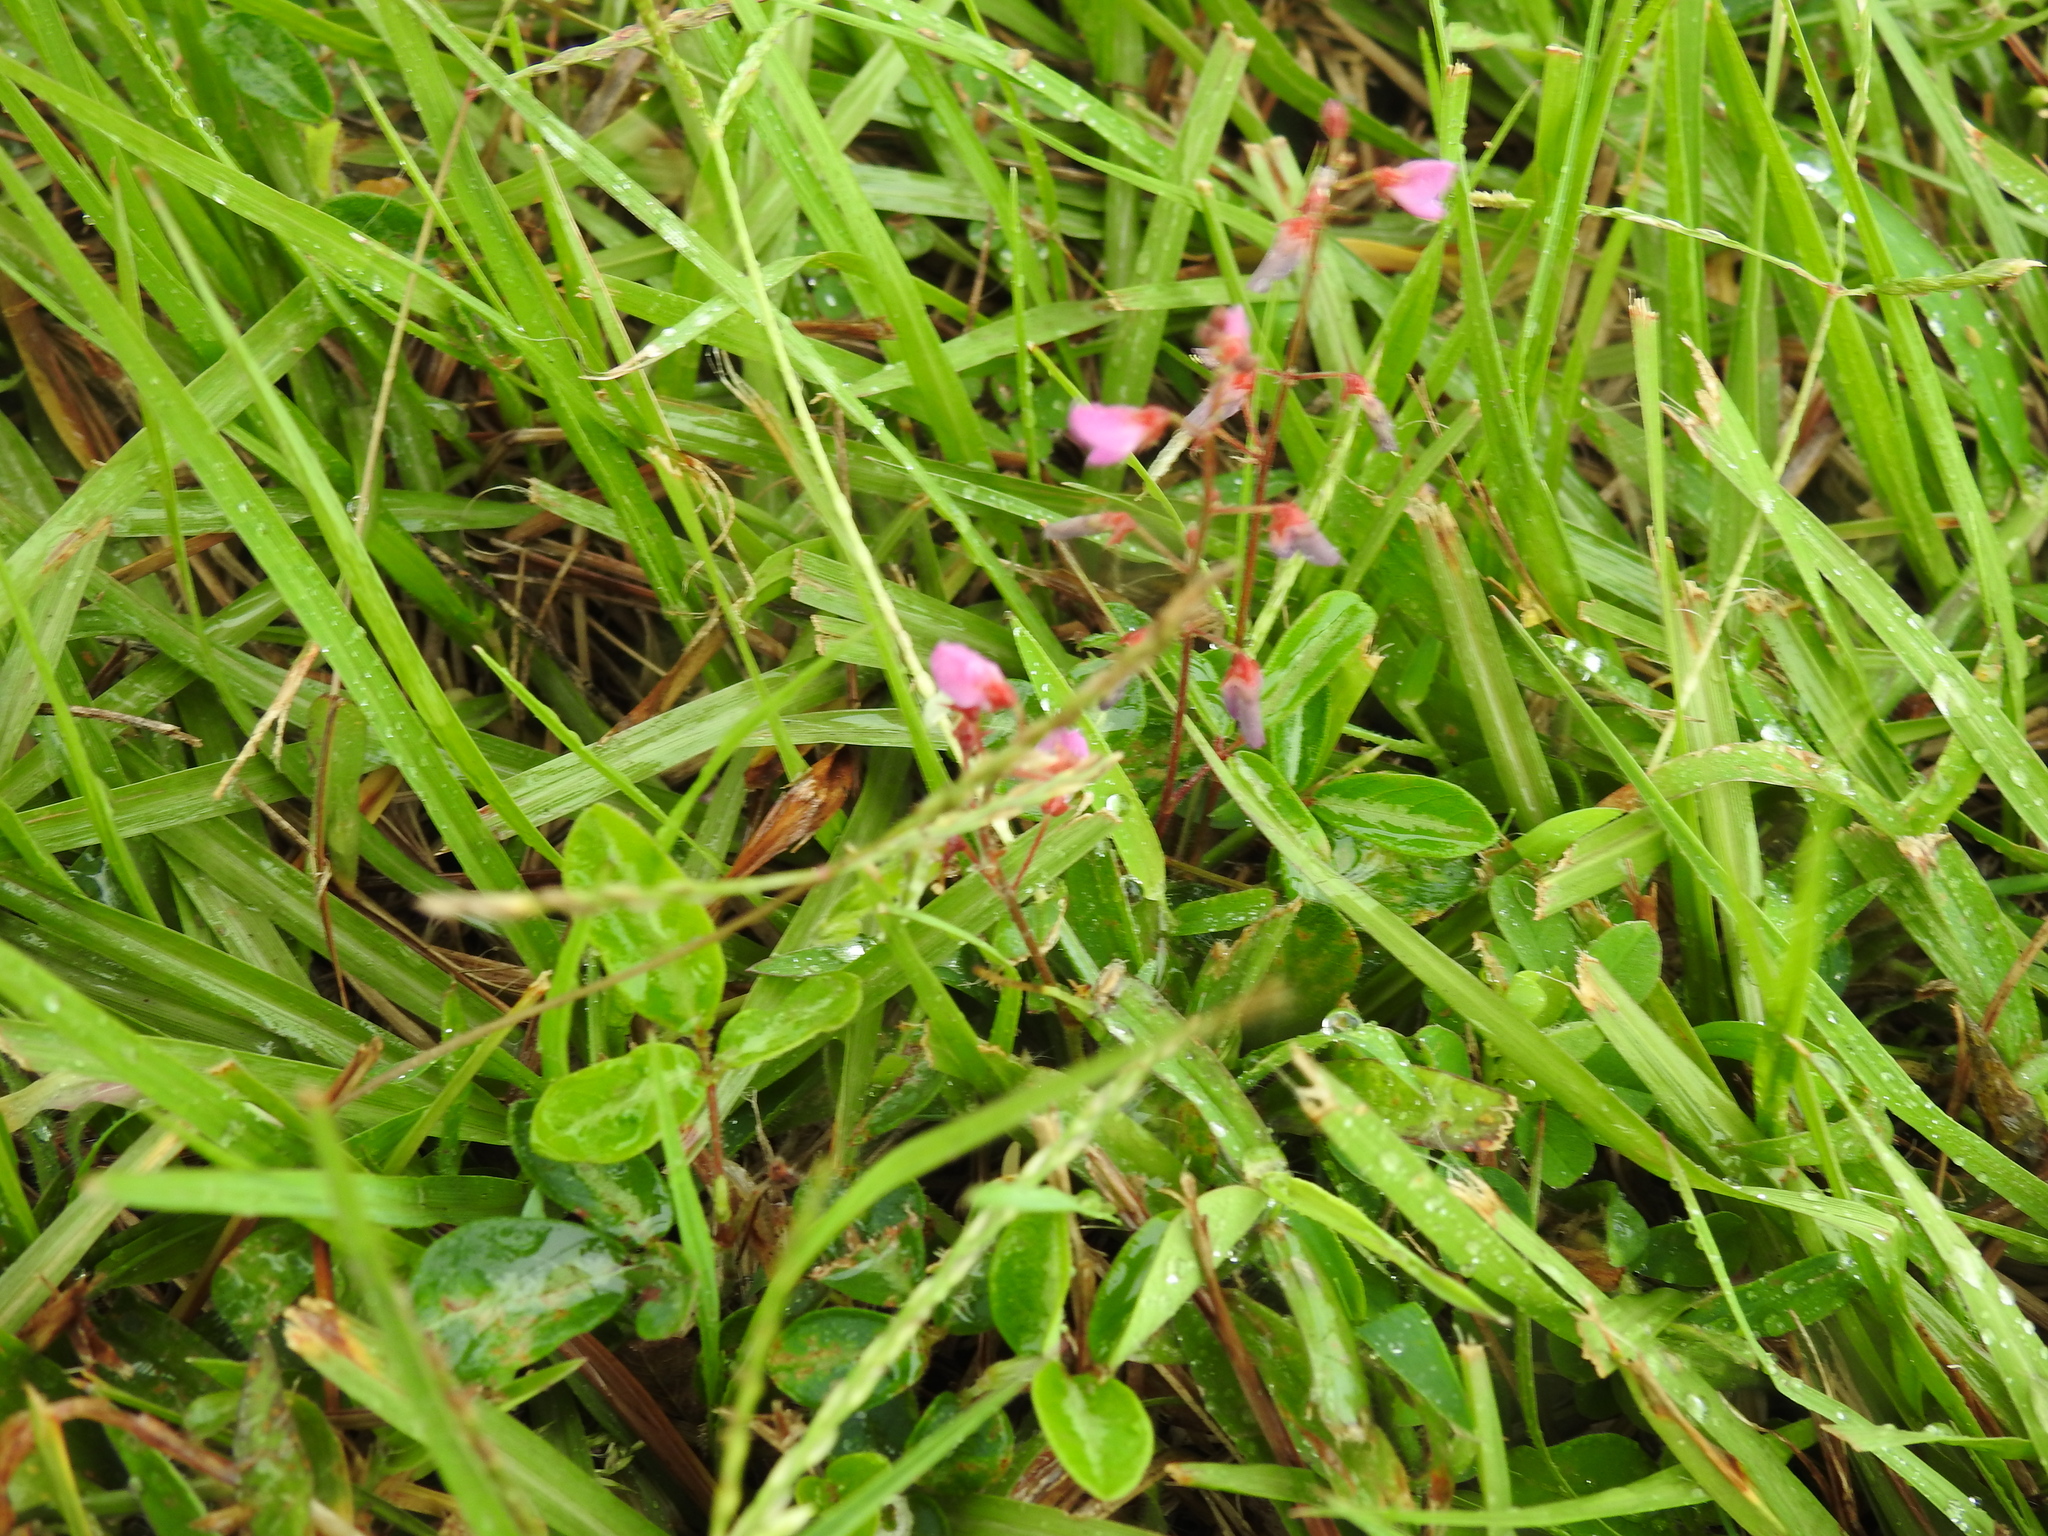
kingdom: Plantae
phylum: Tracheophyta
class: Magnoliopsida
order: Fabales
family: Fabaceae
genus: Desmodium
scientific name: Desmodium incanum
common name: Tickclover
